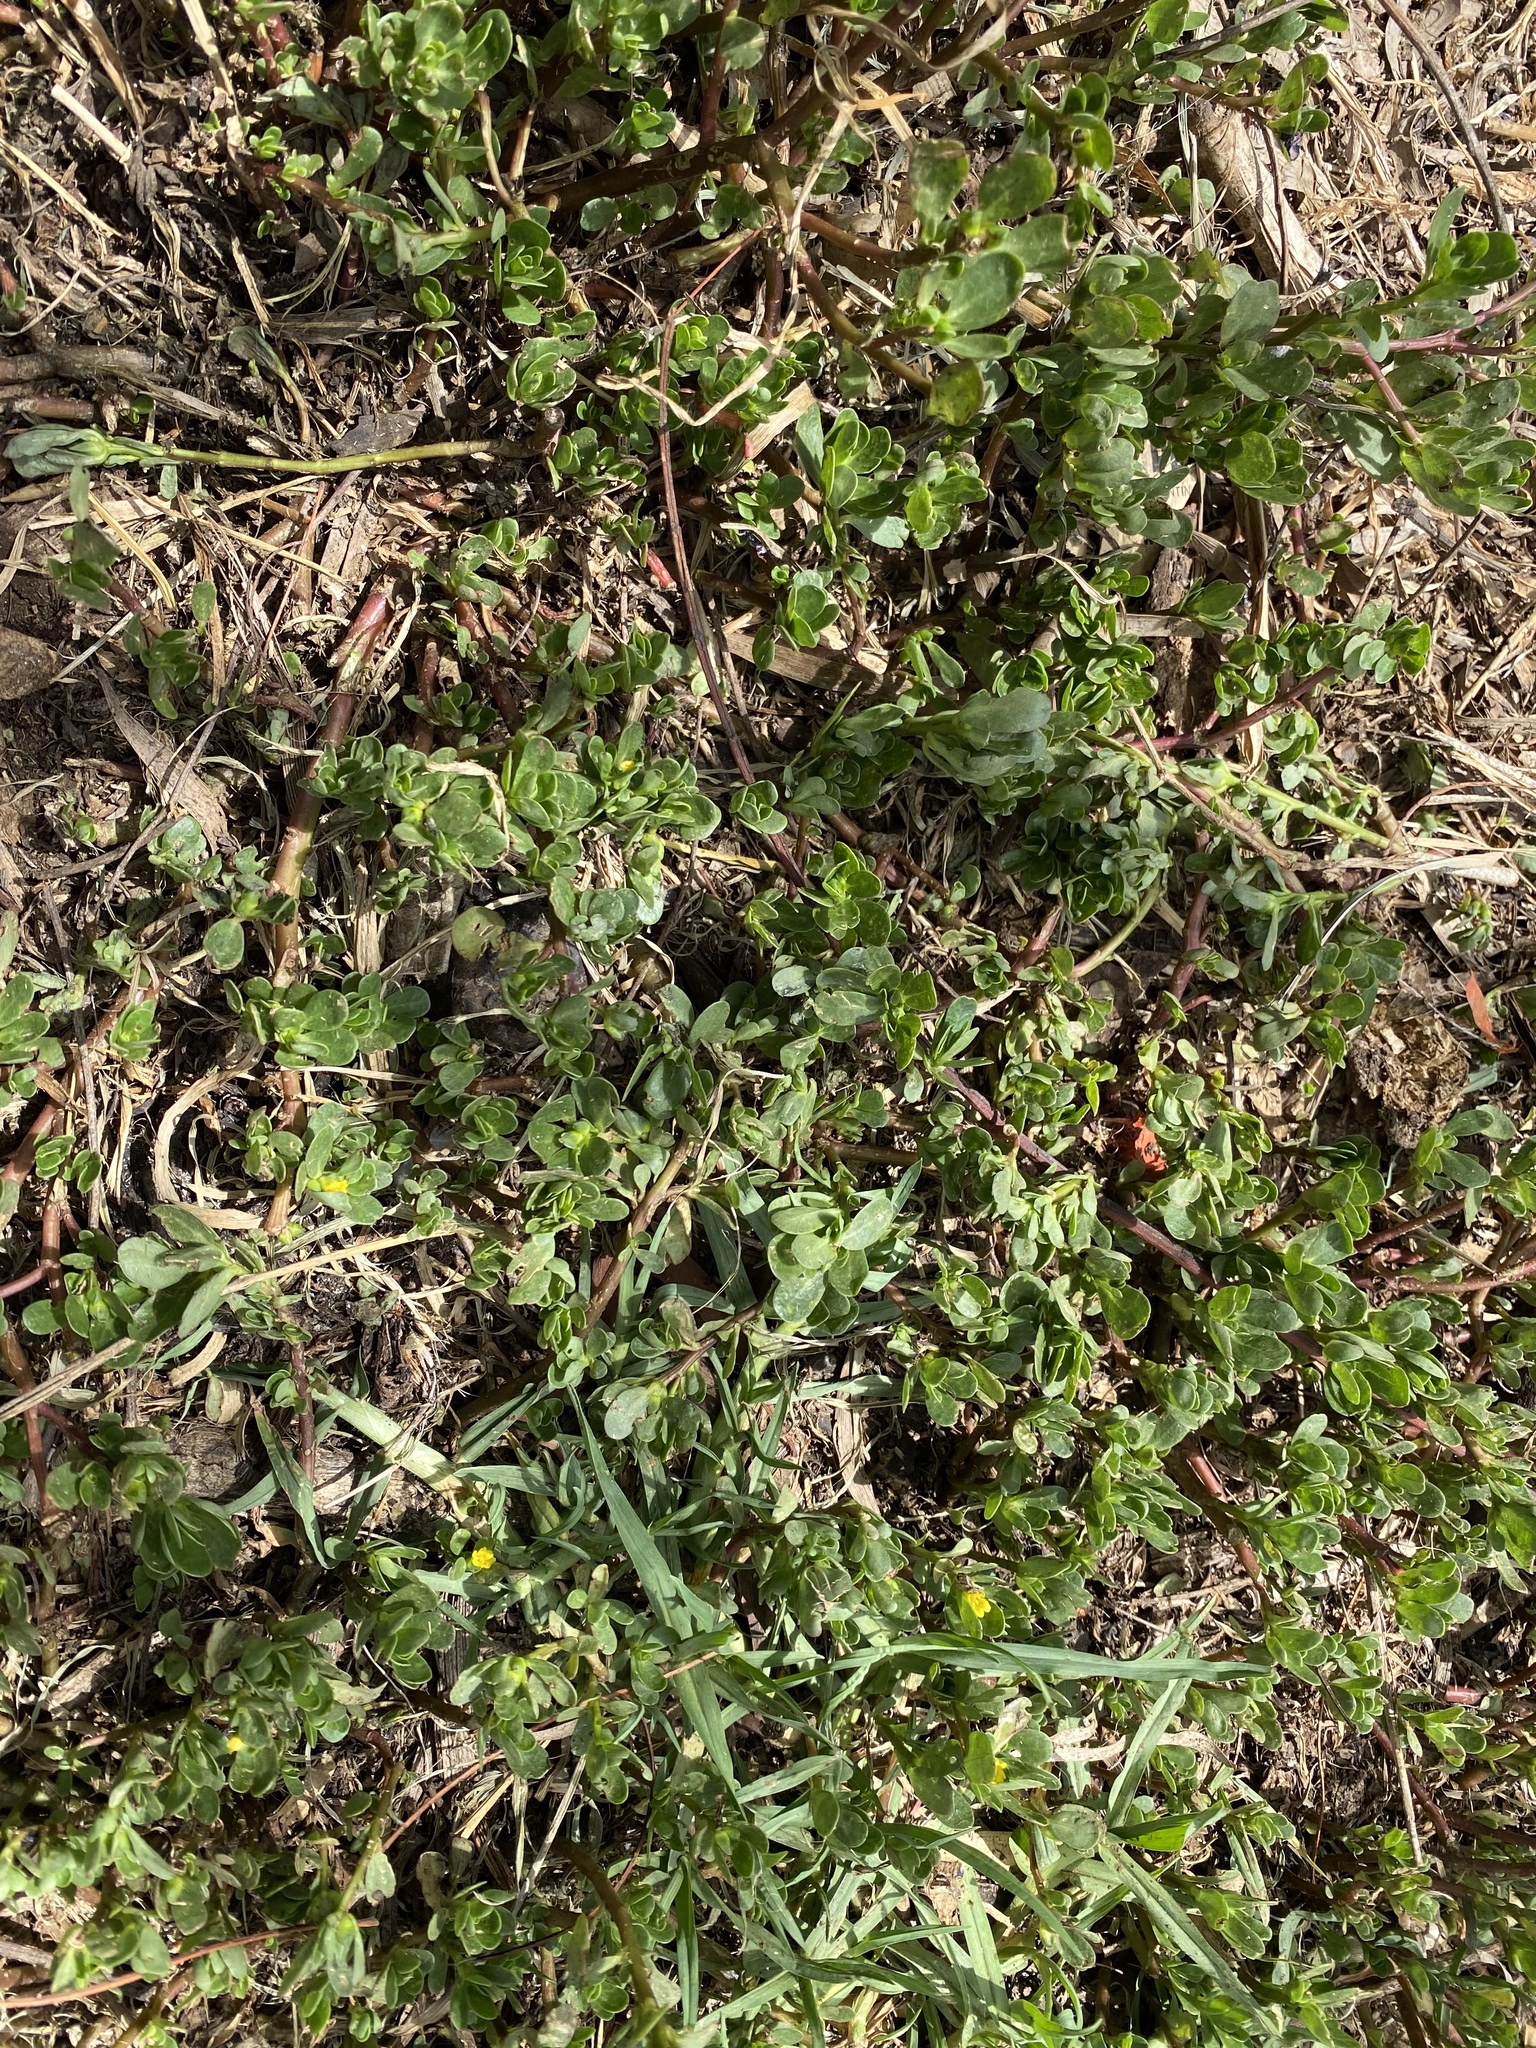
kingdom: Plantae
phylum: Tracheophyta
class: Magnoliopsida
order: Caryophyllales
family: Portulacaceae
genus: Portulaca
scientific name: Portulaca oleracea
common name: Common purslane
